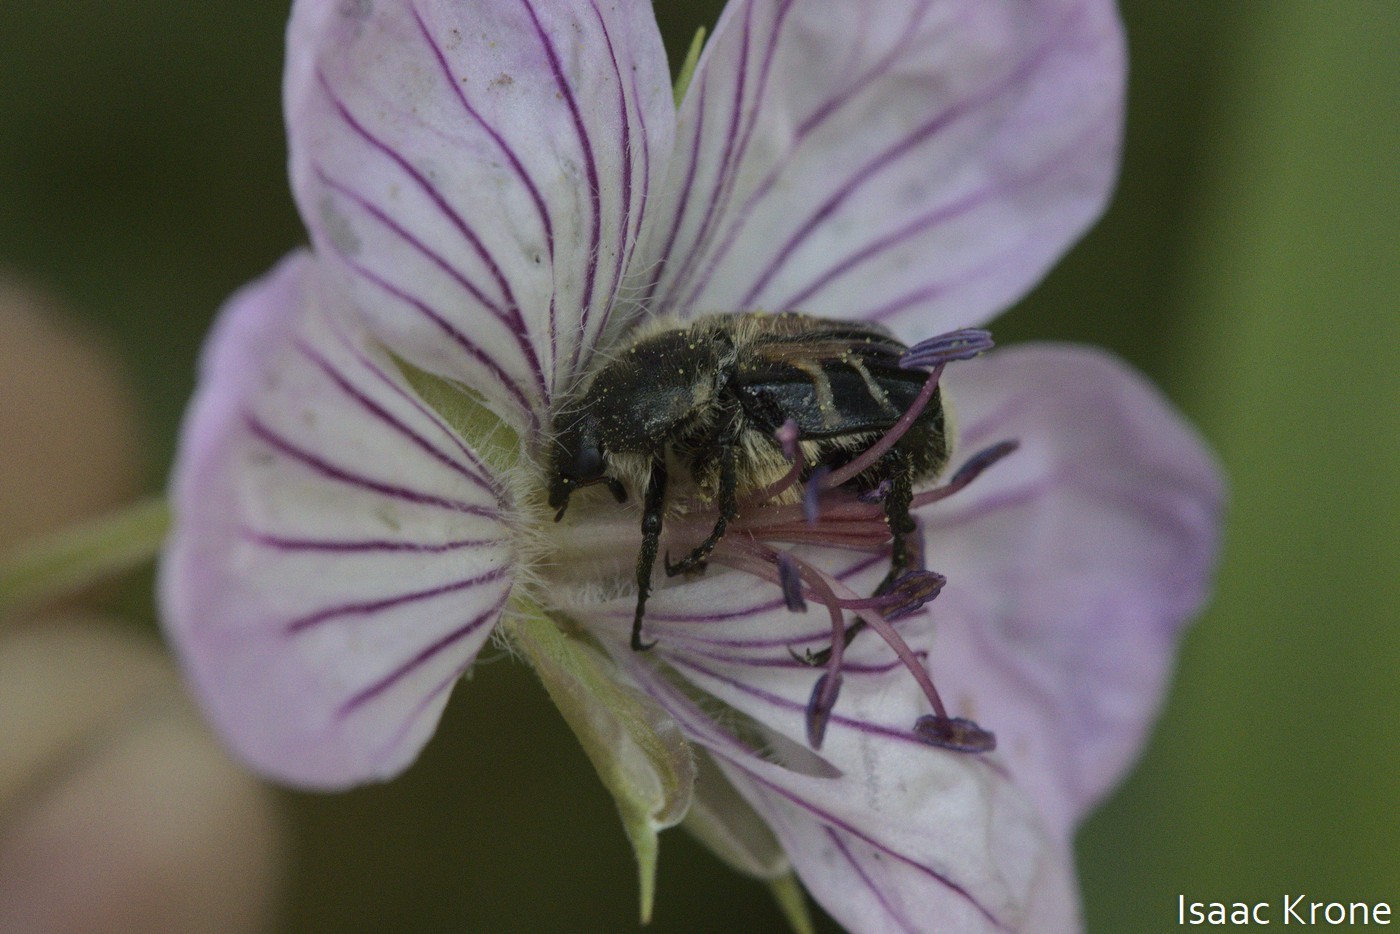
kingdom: Animalia
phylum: Arthropoda
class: Insecta
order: Coleoptera
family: Scarabaeidae
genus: Trichiotinus
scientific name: Trichiotinus assimilis
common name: Bee-mimic beetle
